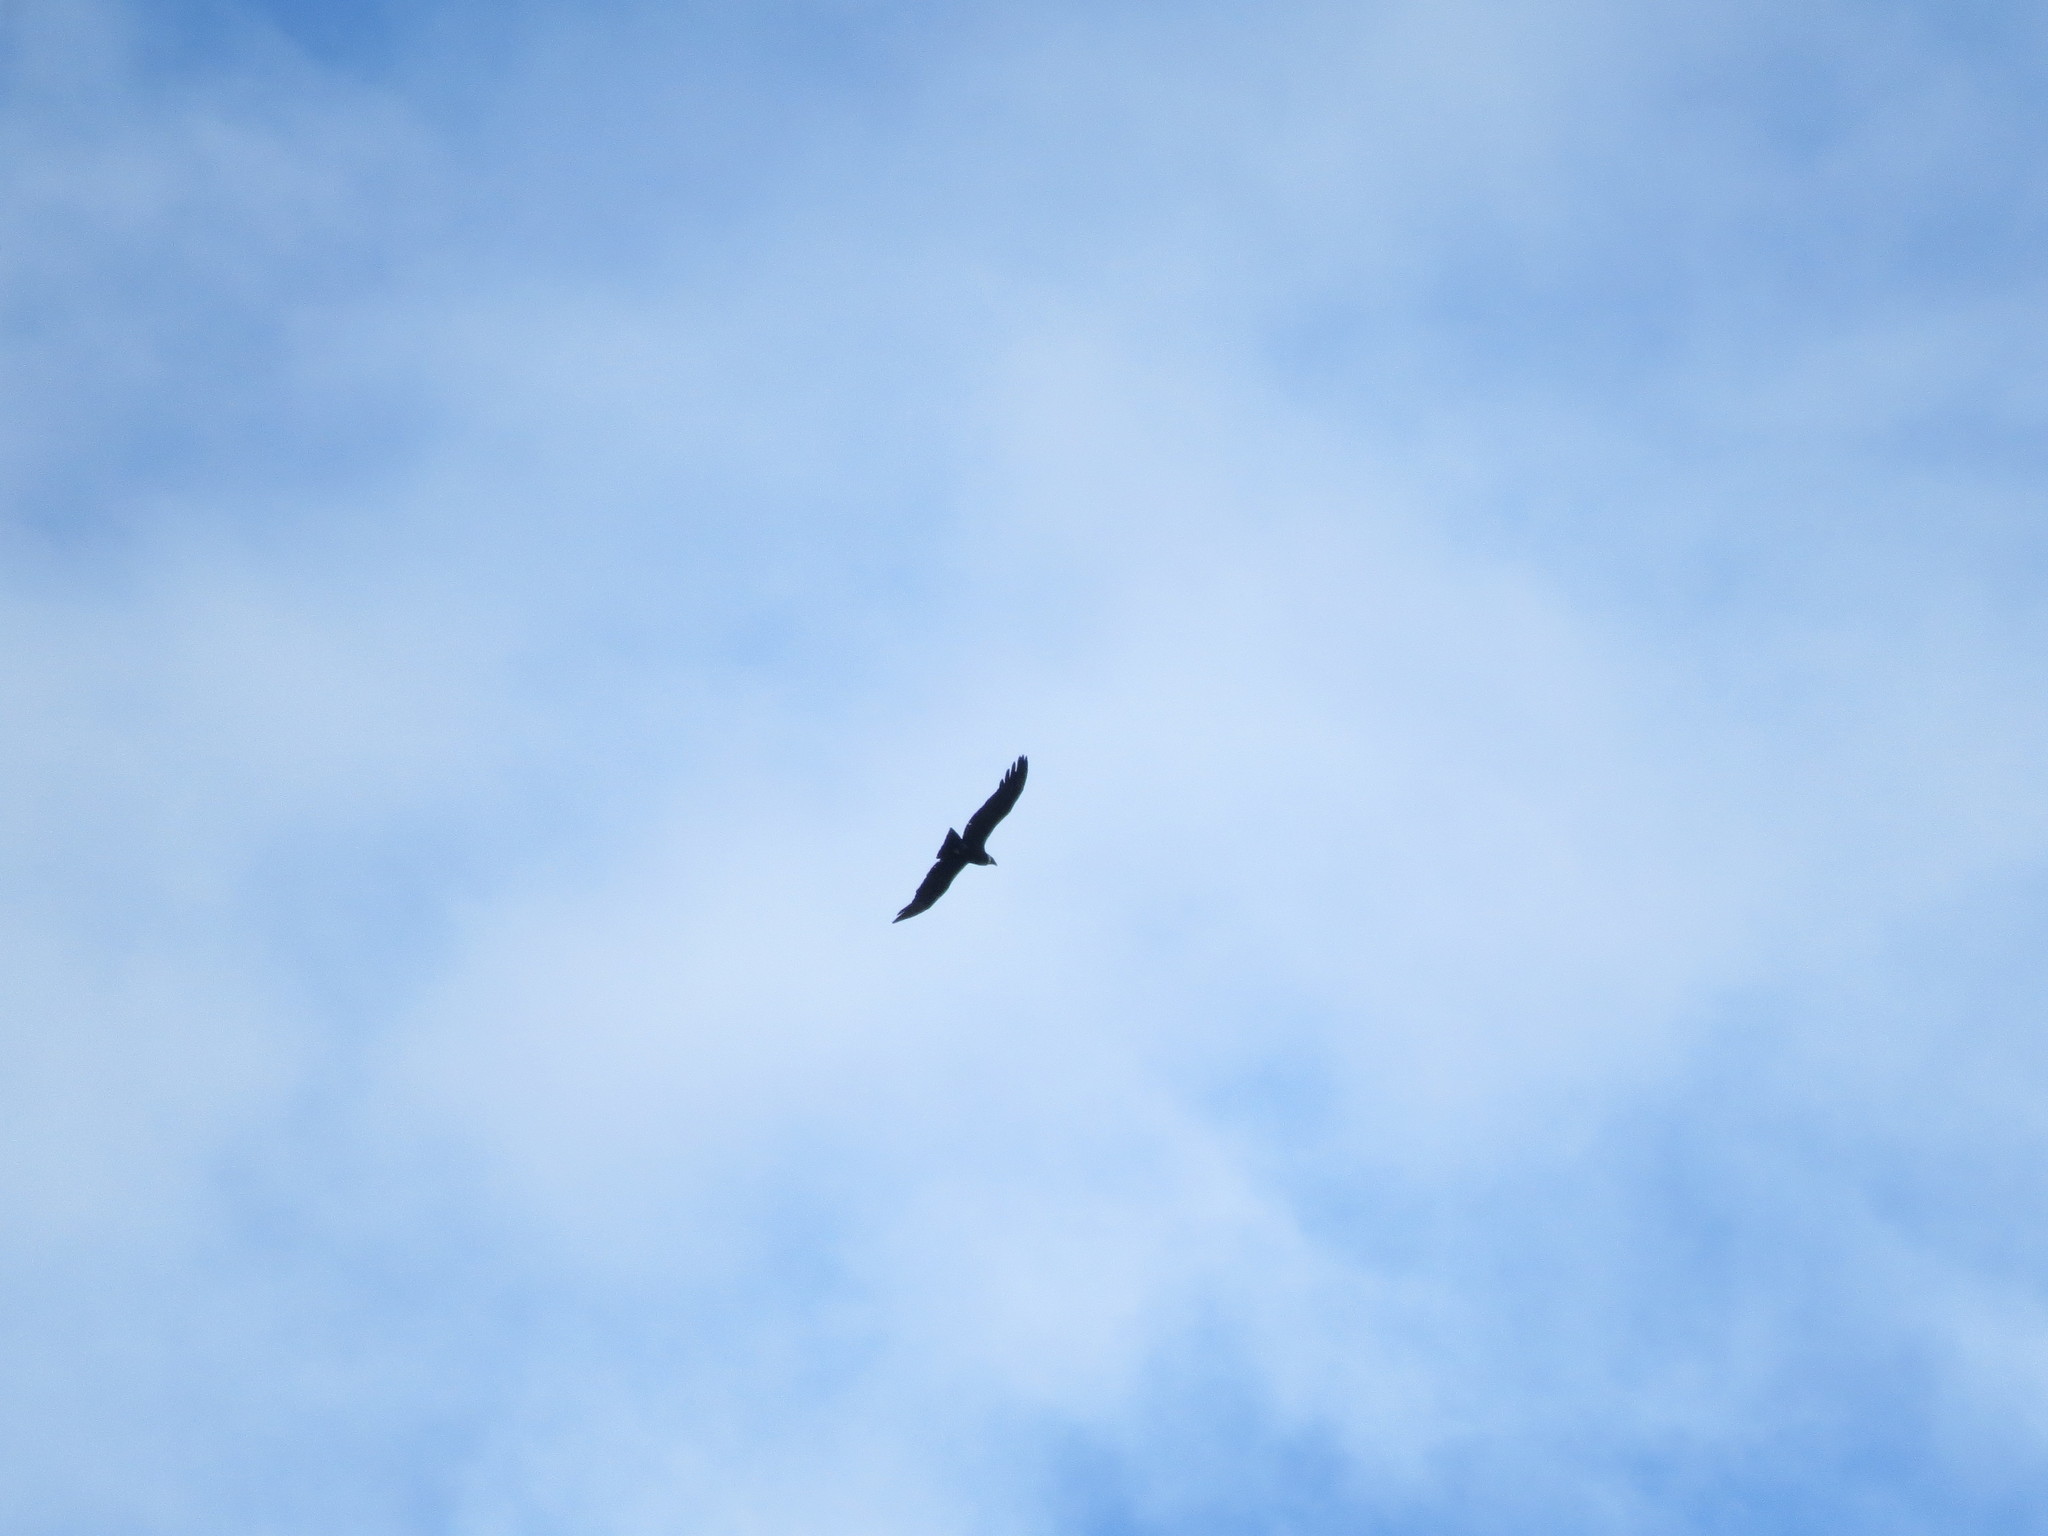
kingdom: Animalia
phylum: Chordata
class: Aves
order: Accipitriformes
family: Cathartidae
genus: Vultur
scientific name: Vultur gryphus
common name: Andean condor
